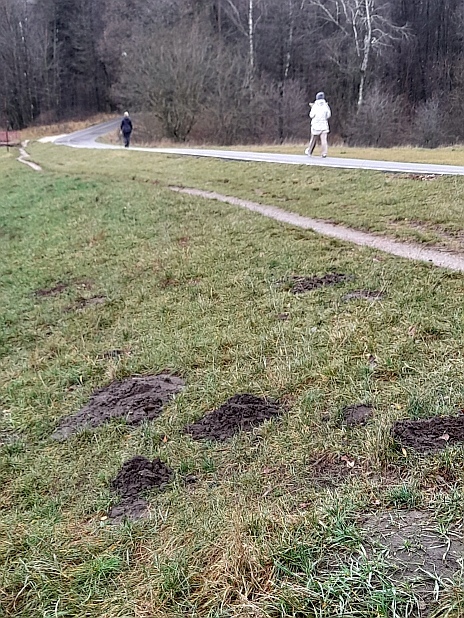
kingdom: Animalia
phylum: Chordata
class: Mammalia
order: Soricomorpha
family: Talpidae
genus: Talpa
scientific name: Talpa europaea
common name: European mole
